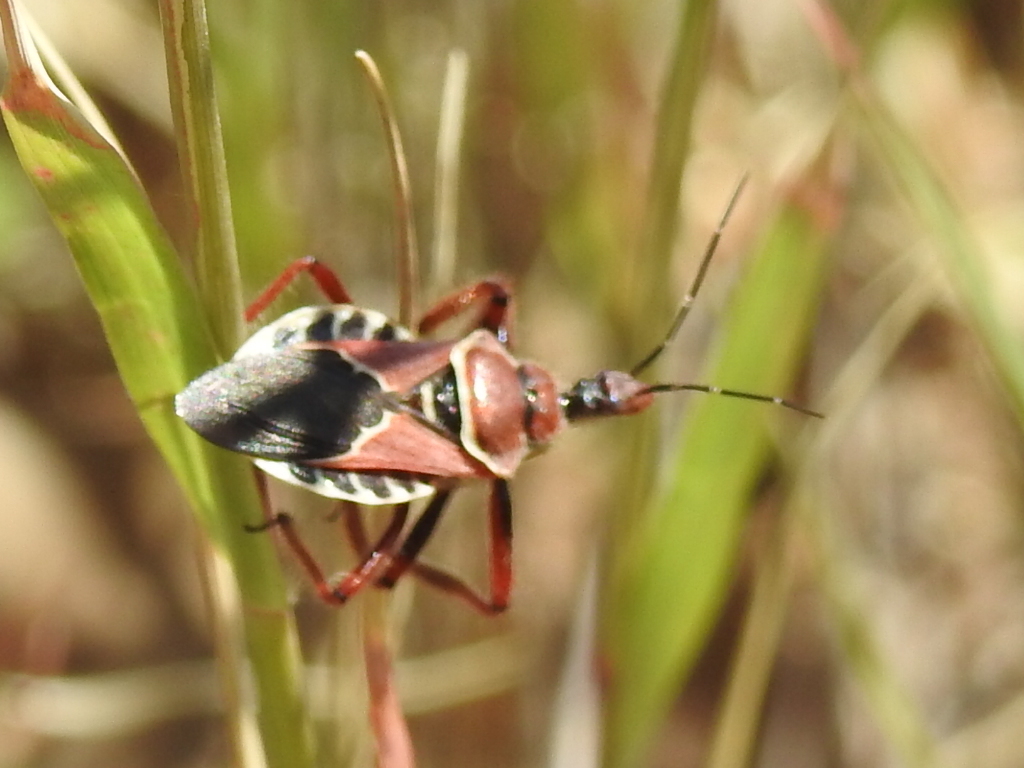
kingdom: Animalia
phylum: Arthropoda
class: Insecta
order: Hemiptera
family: Reduviidae
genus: Apiomerus
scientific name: Apiomerus spissipes
